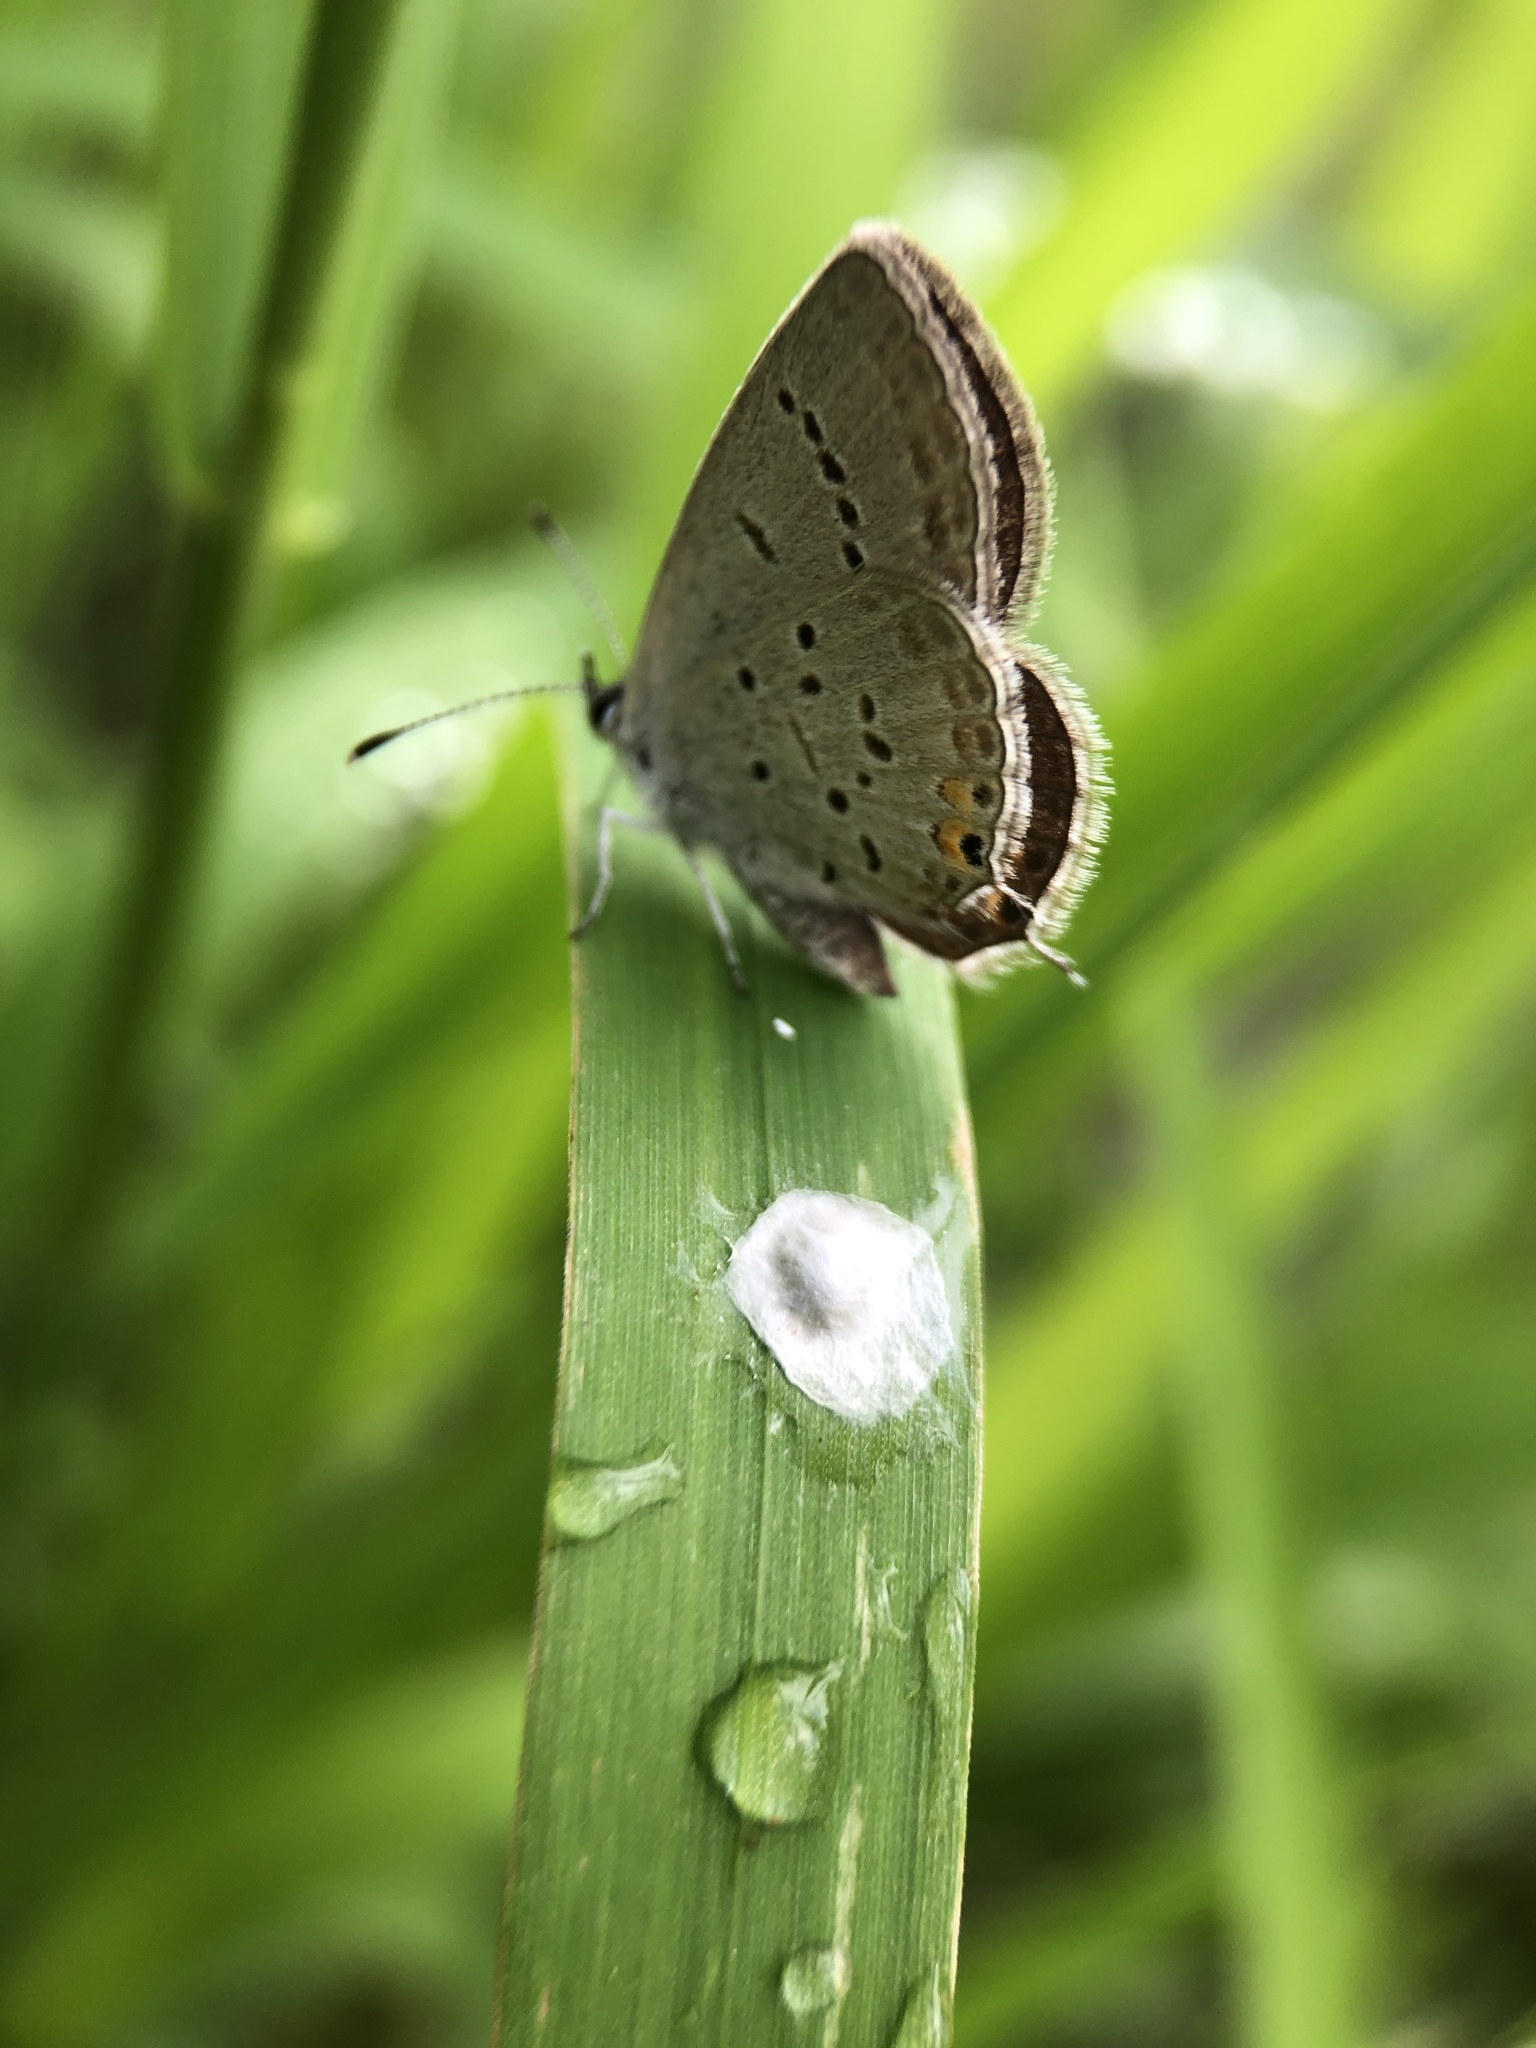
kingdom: Animalia
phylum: Arthropoda
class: Insecta
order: Lepidoptera
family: Lycaenidae
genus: Elkalyce
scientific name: Elkalyce comyntas
